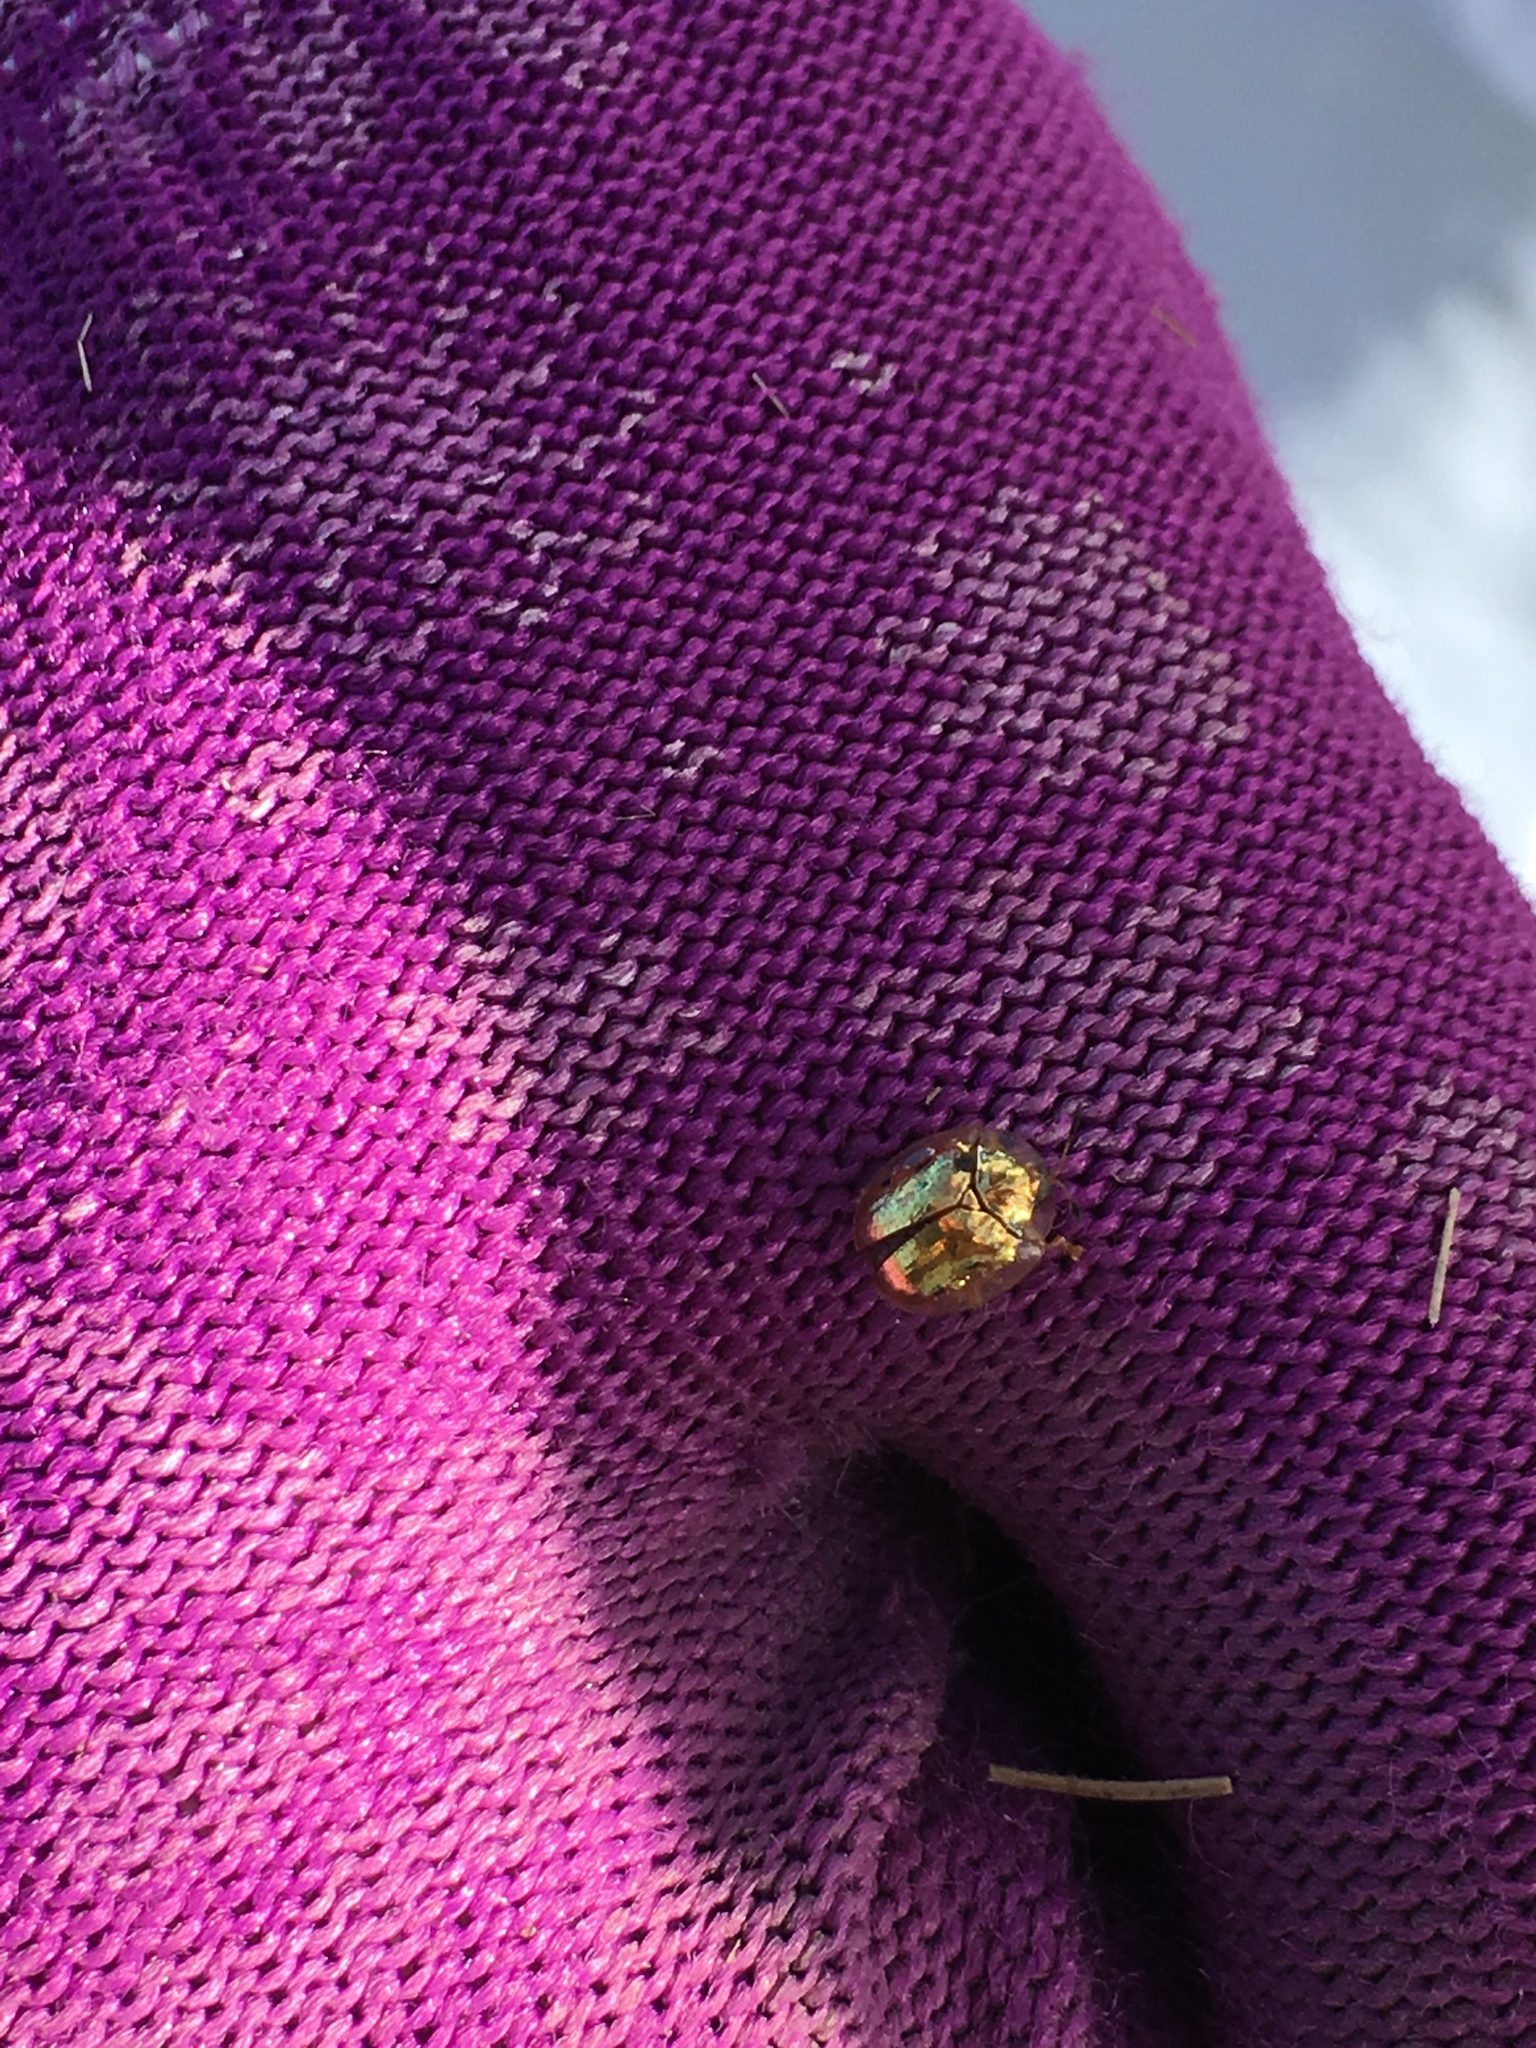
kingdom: Animalia
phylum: Arthropoda
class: Insecta
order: Coleoptera
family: Chrysomelidae
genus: Charidotella
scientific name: Charidotella sexpunctata
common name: Golden tortoise beetle
